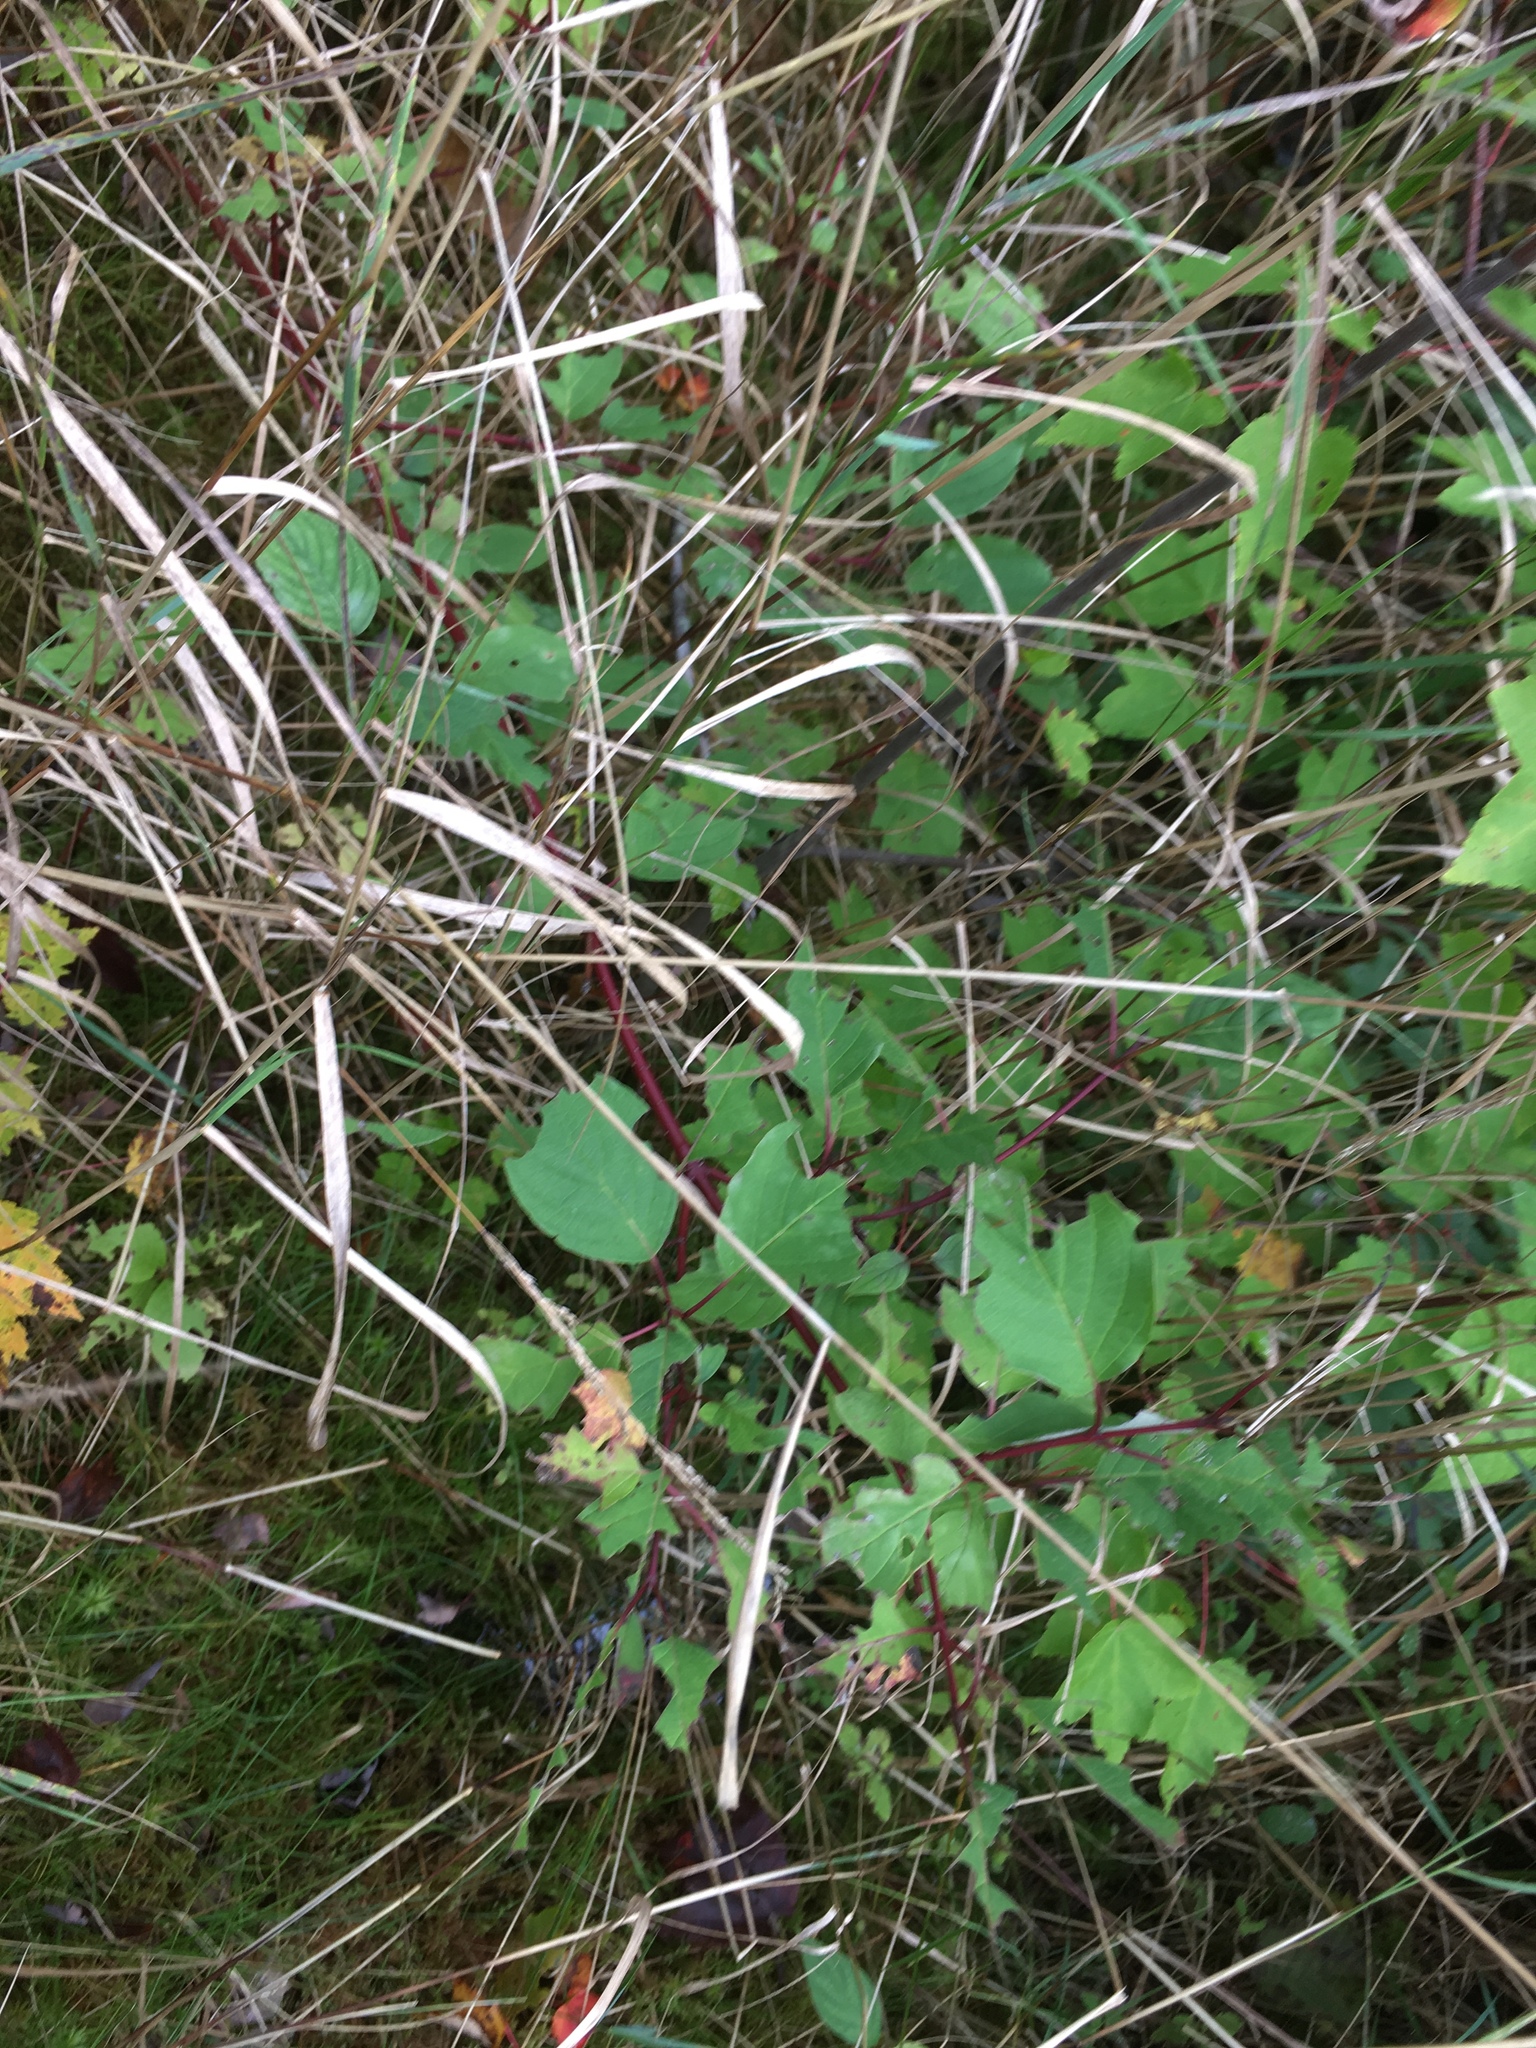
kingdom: Plantae
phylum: Tracheophyta
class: Magnoliopsida
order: Cornales
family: Cornaceae
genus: Cornus
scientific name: Cornus sericea
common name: Red-osier dogwood
